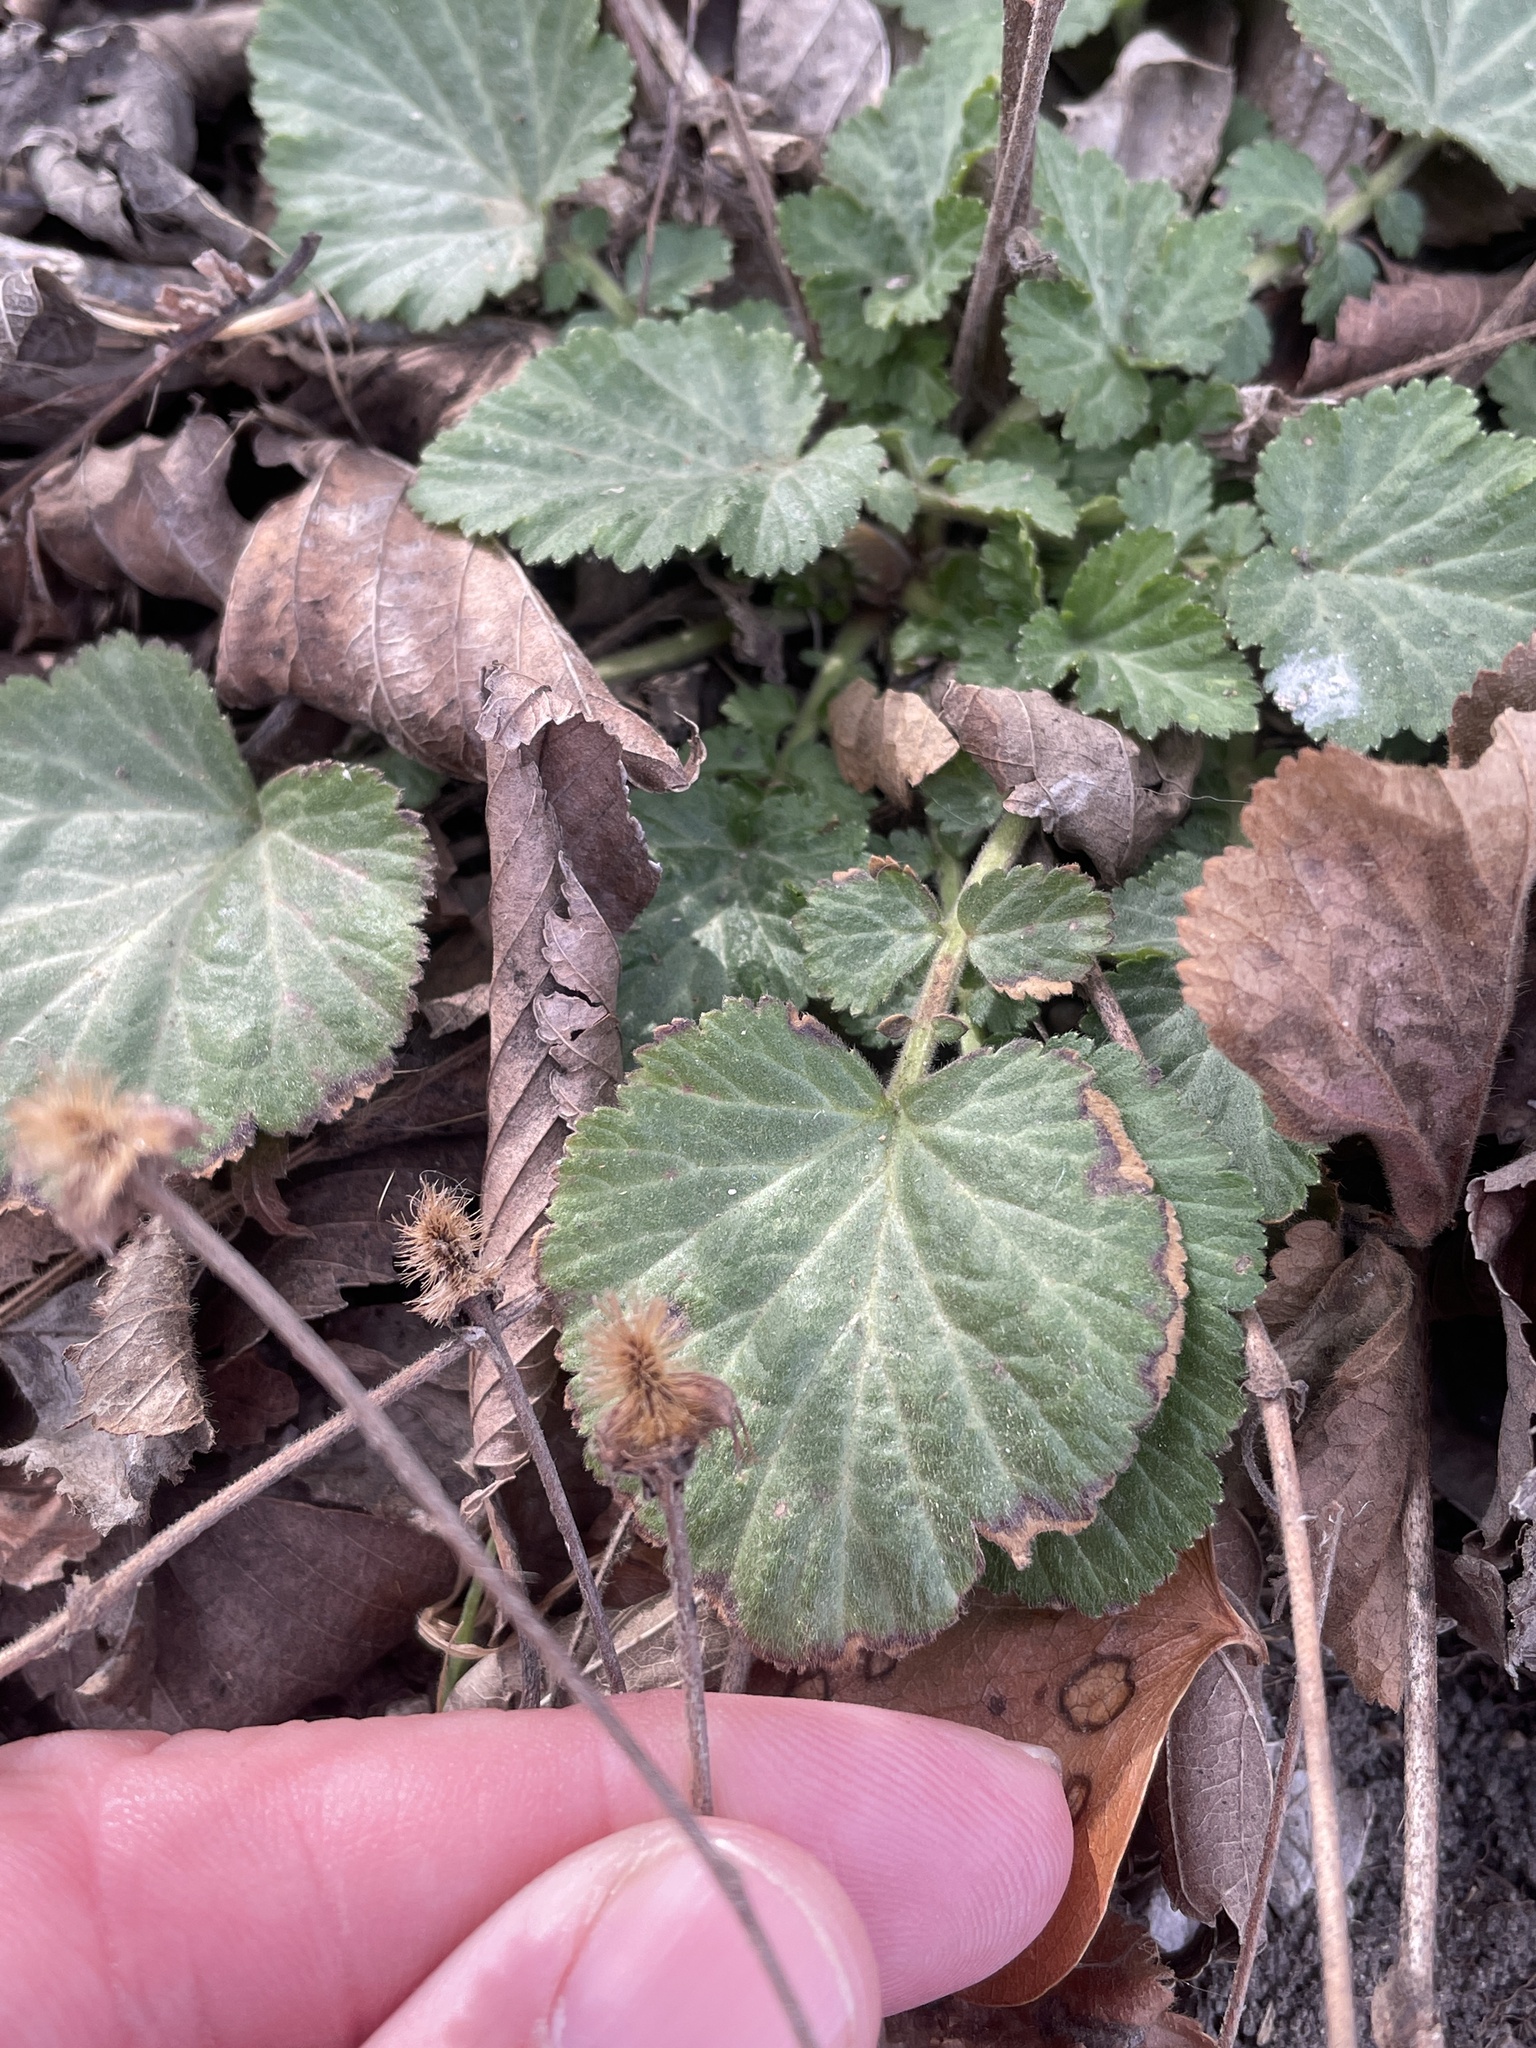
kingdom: Plantae
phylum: Tracheophyta
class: Magnoliopsida
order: Rosales
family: Rosaceae
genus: Geum
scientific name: Geum canadense
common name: White avens
